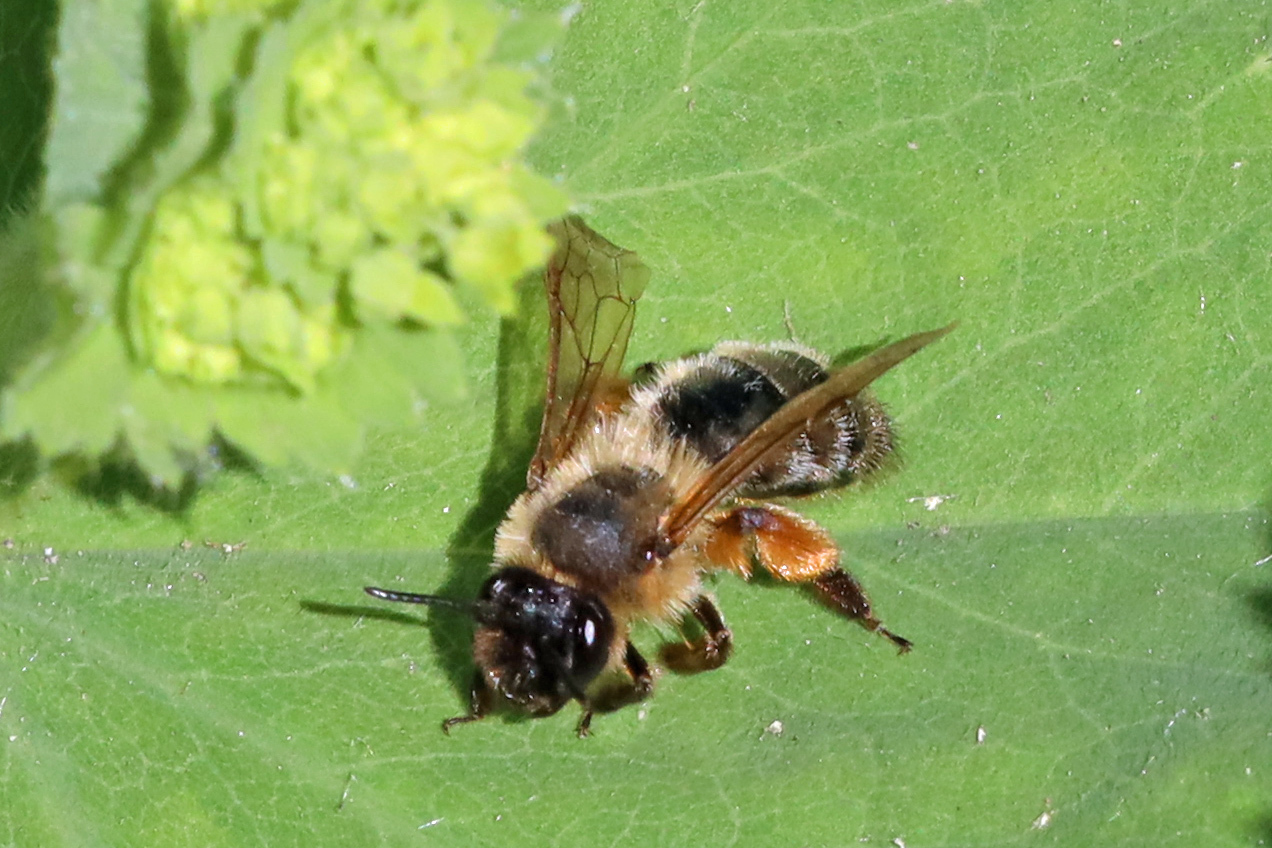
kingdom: Animalia
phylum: Arthropoda
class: Insecta
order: Hymenoptera
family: Andrenidae
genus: Andrena
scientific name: Andrena nigroaenea
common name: Buffish mining bee
